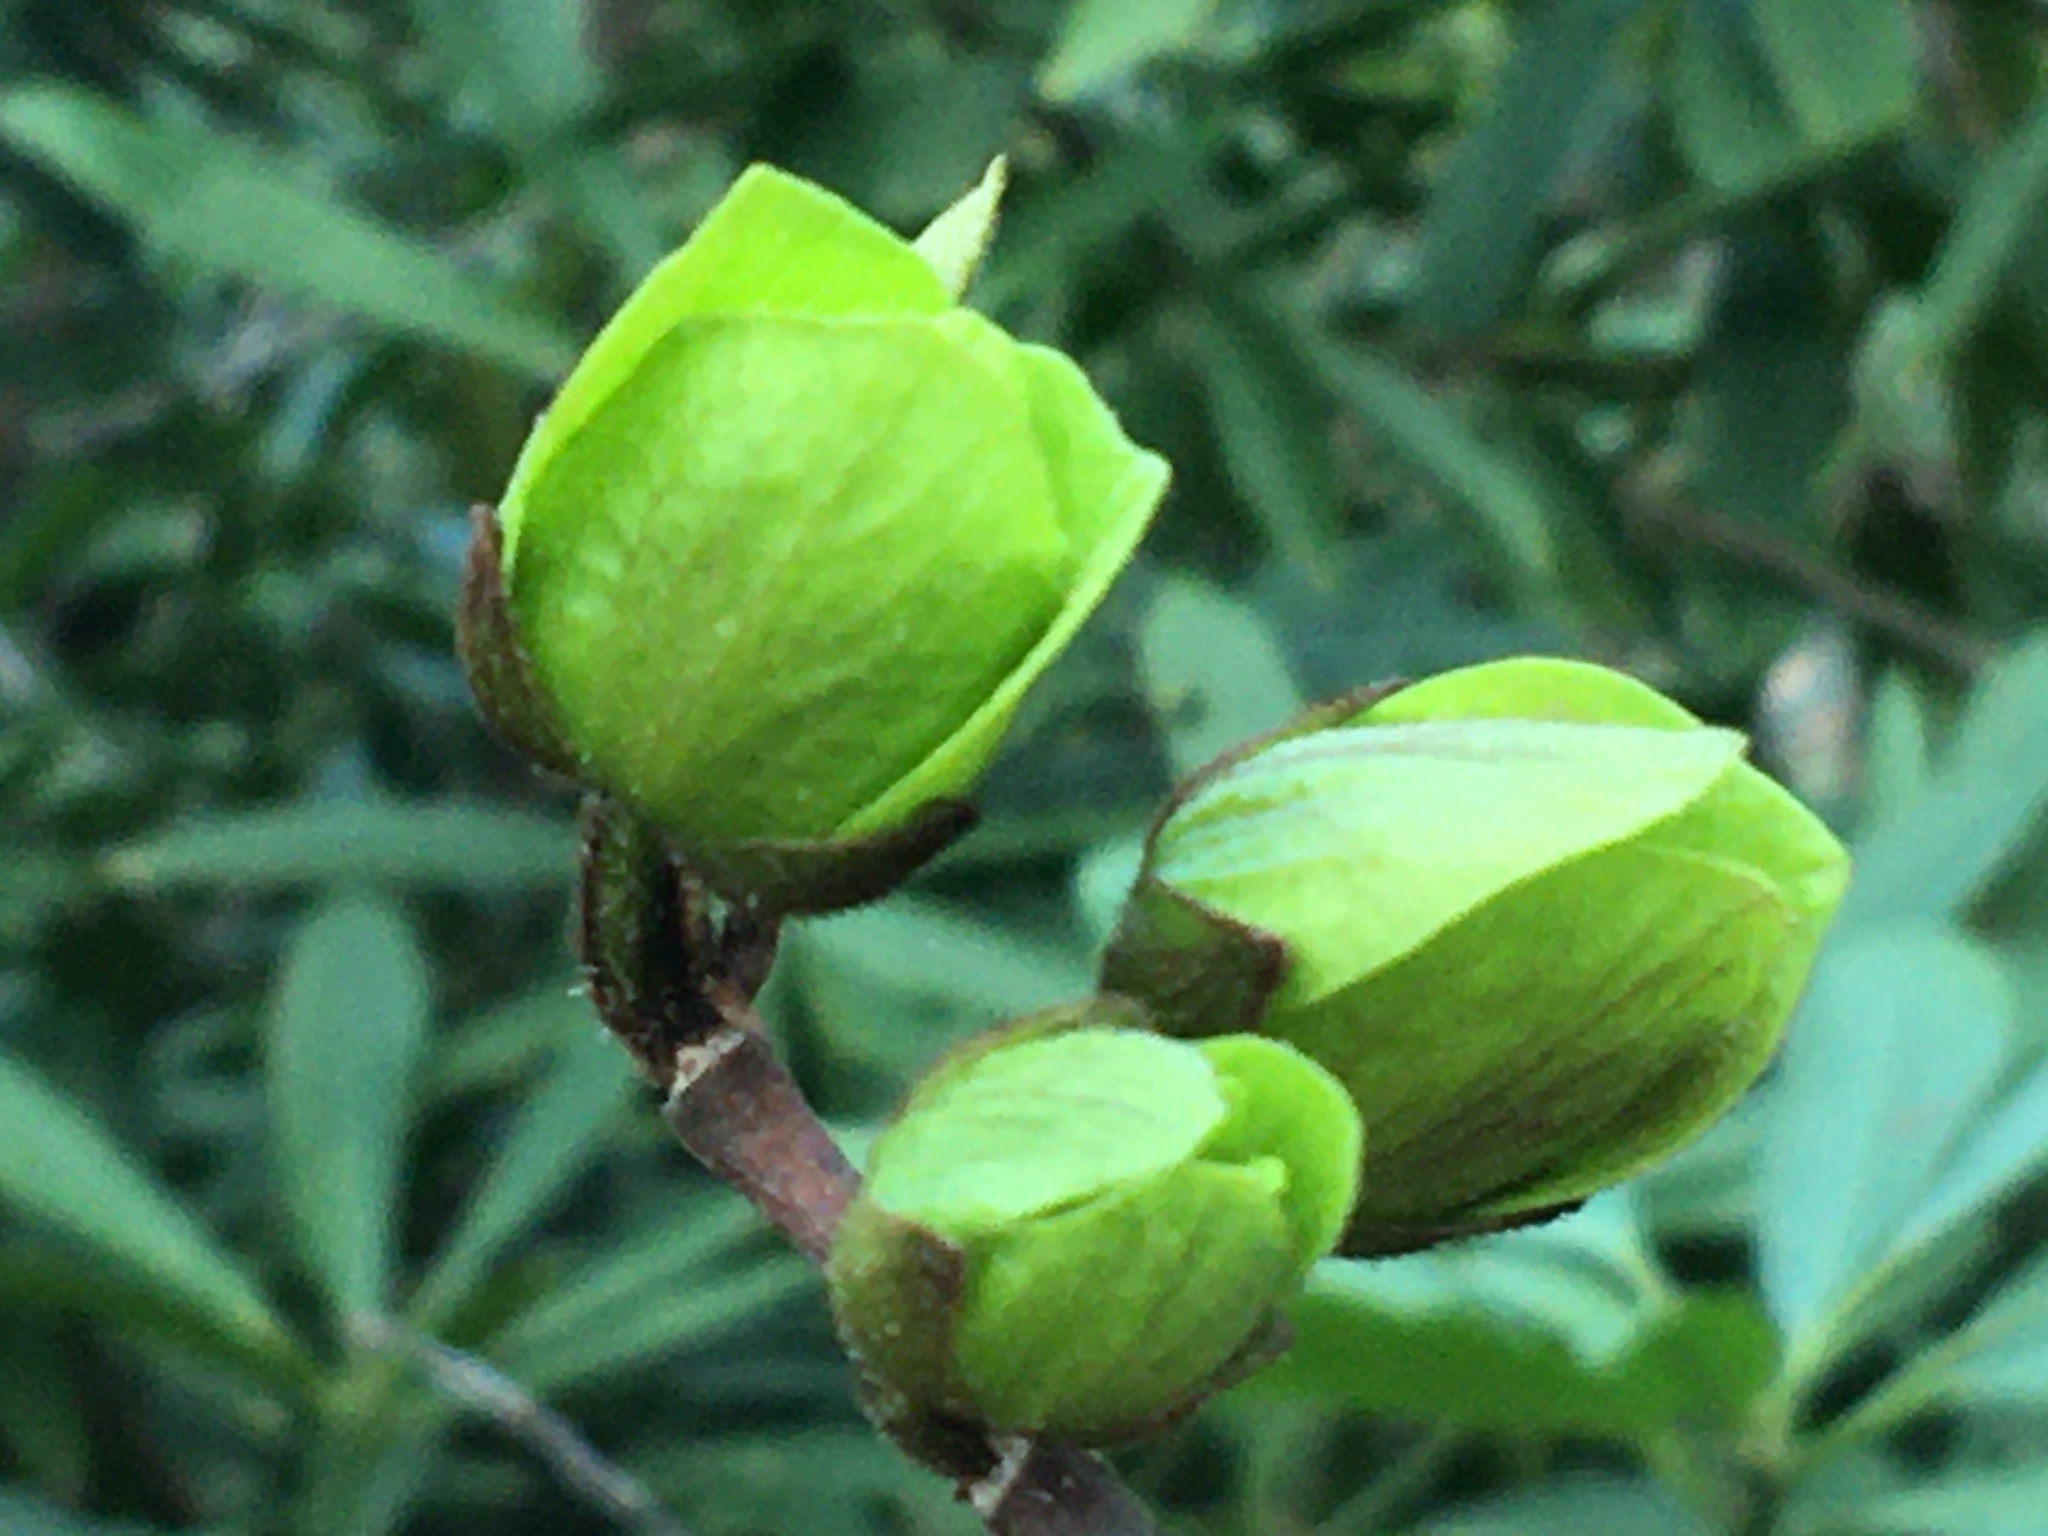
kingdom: Plantae
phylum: Tracheophyta
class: Magnoliopsida
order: Magnoliales
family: Annonaceae
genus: Asimina
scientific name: Asimina triloba
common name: Dog-banana
